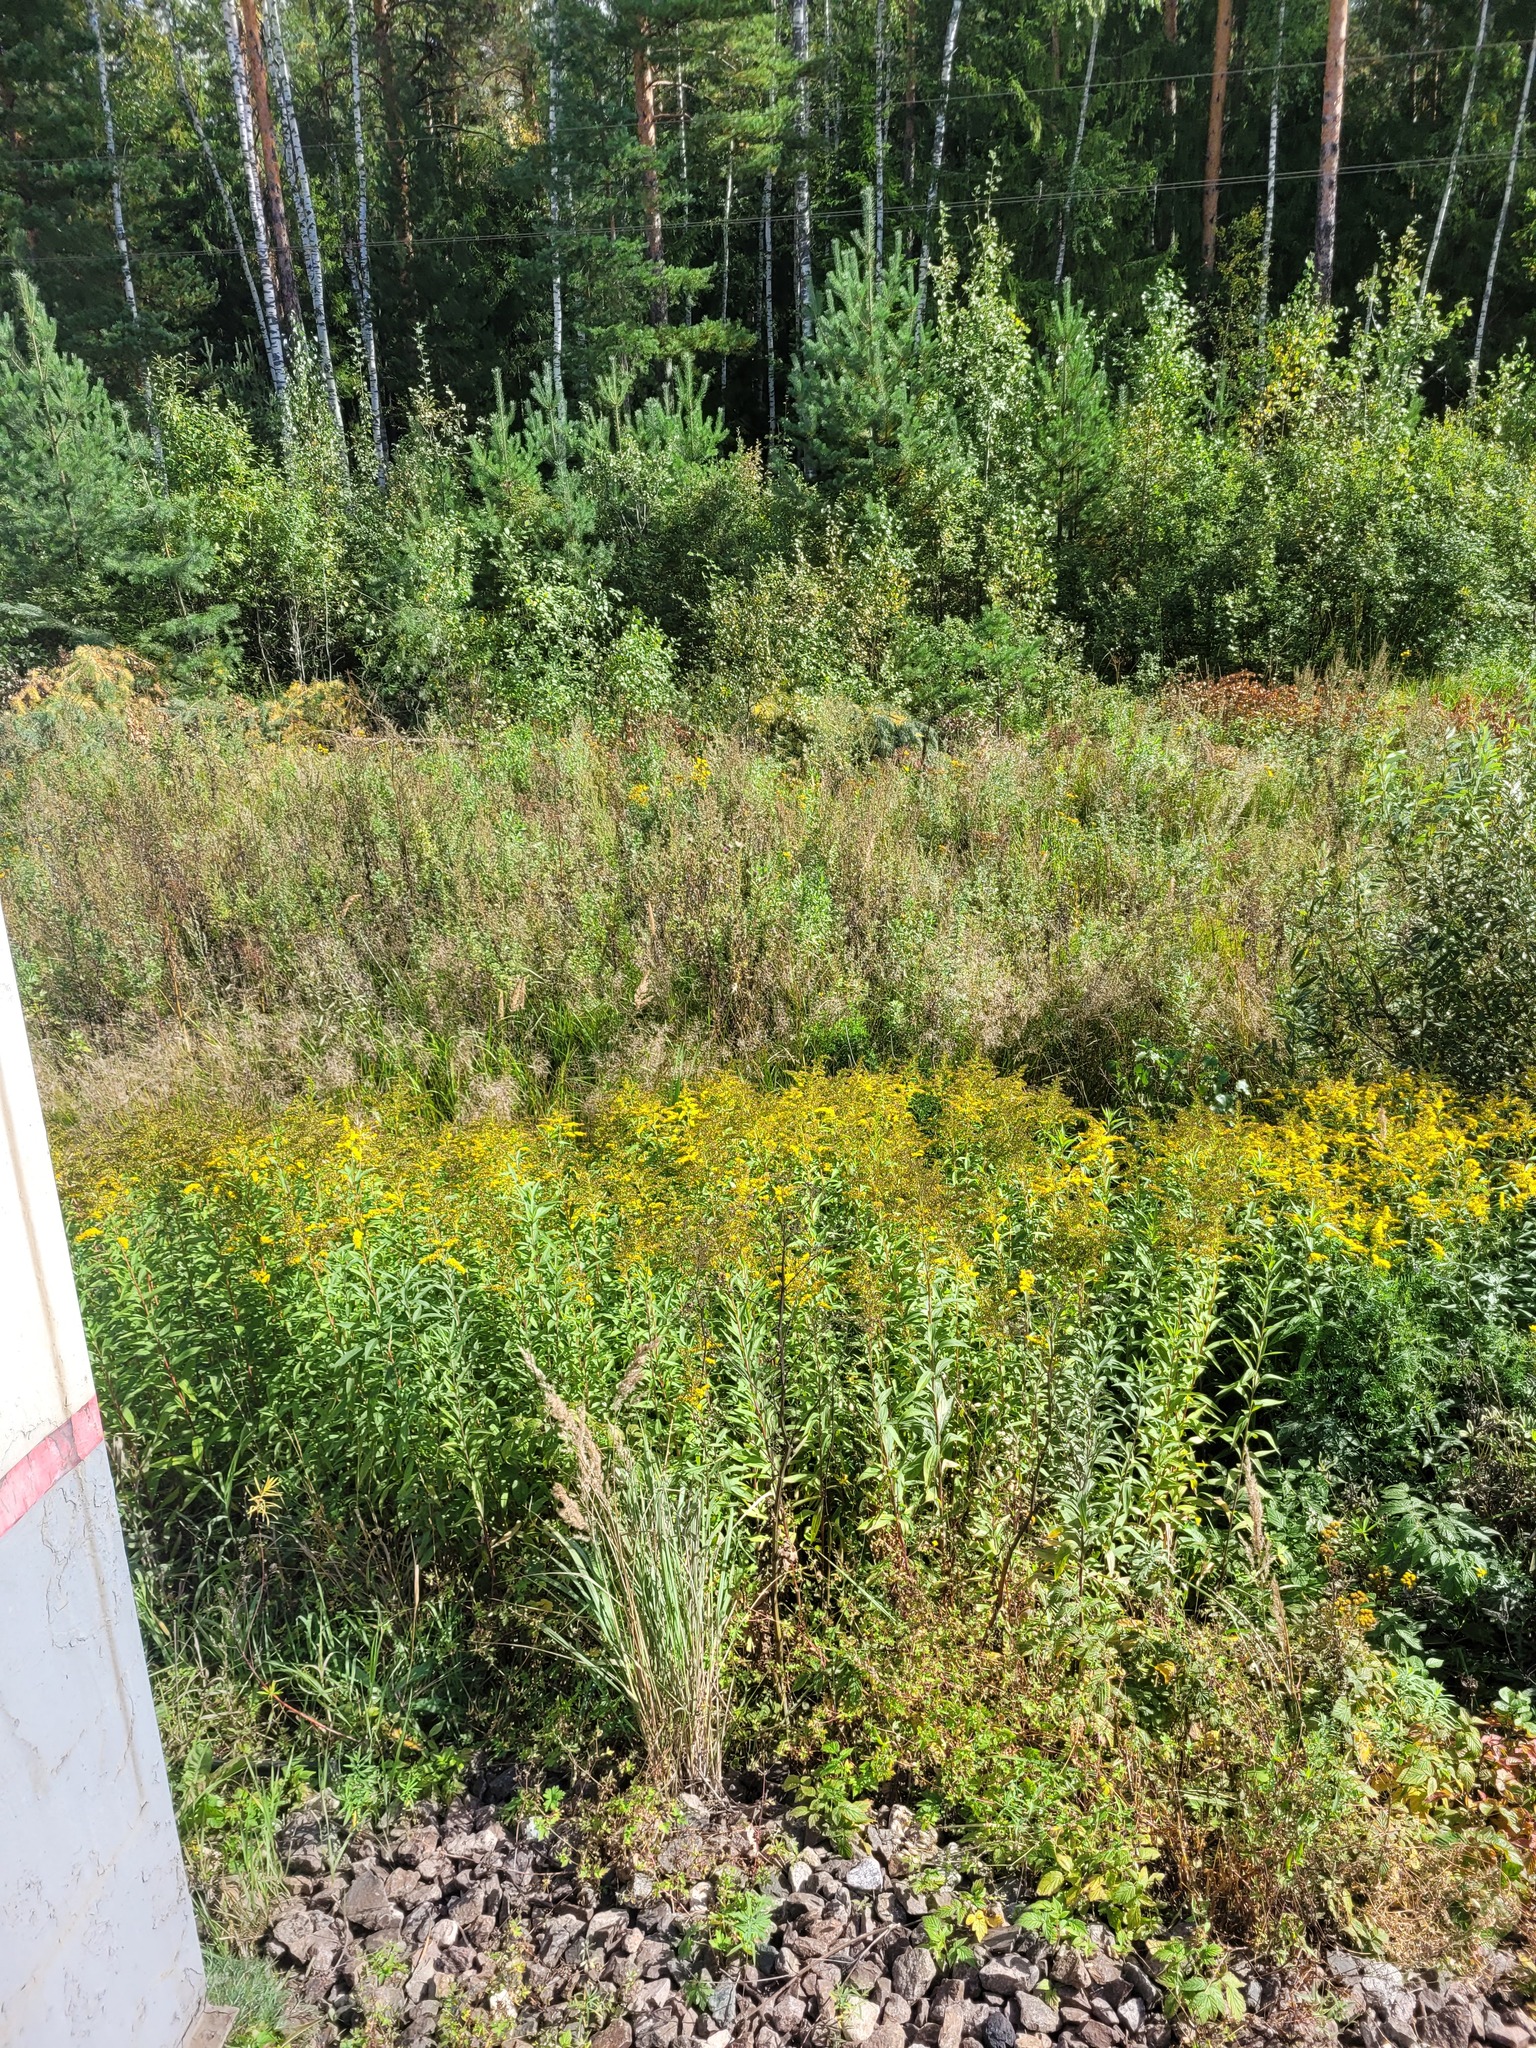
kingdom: Plantae
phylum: Tracheophyta
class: Magnoliopsida
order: Asterales
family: Asteraceae
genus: Solidago
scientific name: Solidago gigantea
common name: Giant goldenrod
